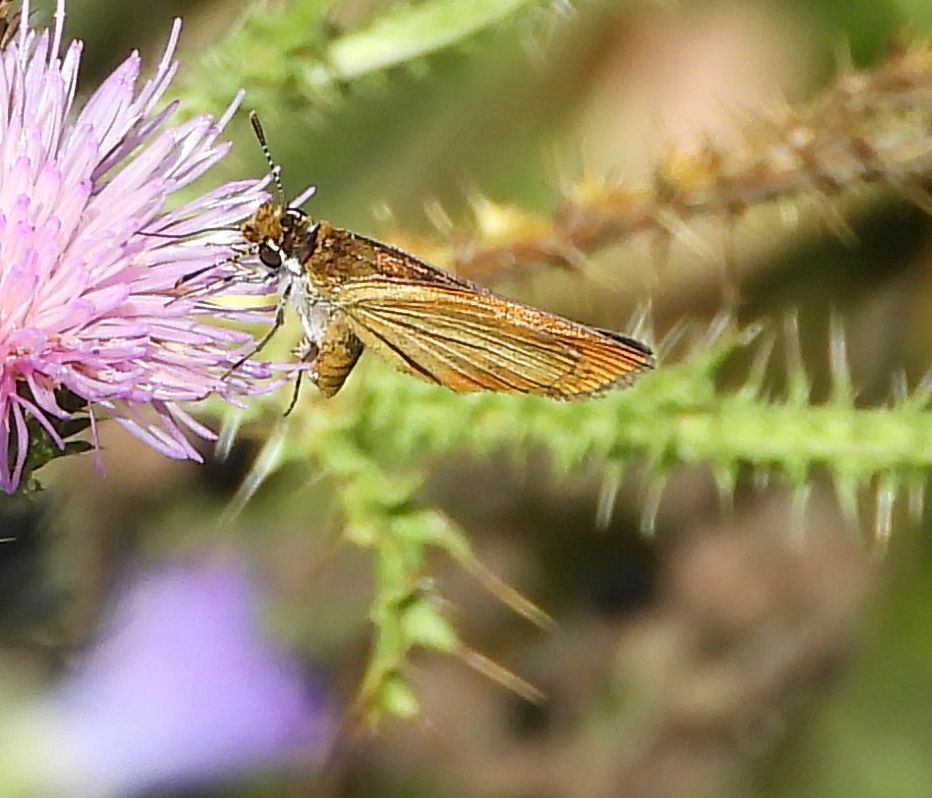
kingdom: Animalia
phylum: Arthropoda
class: Insecta
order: Lepidoptera
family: Hesperiidae
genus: Ancyloxypha
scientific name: Ancyloxypha numitor
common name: Least skipper
